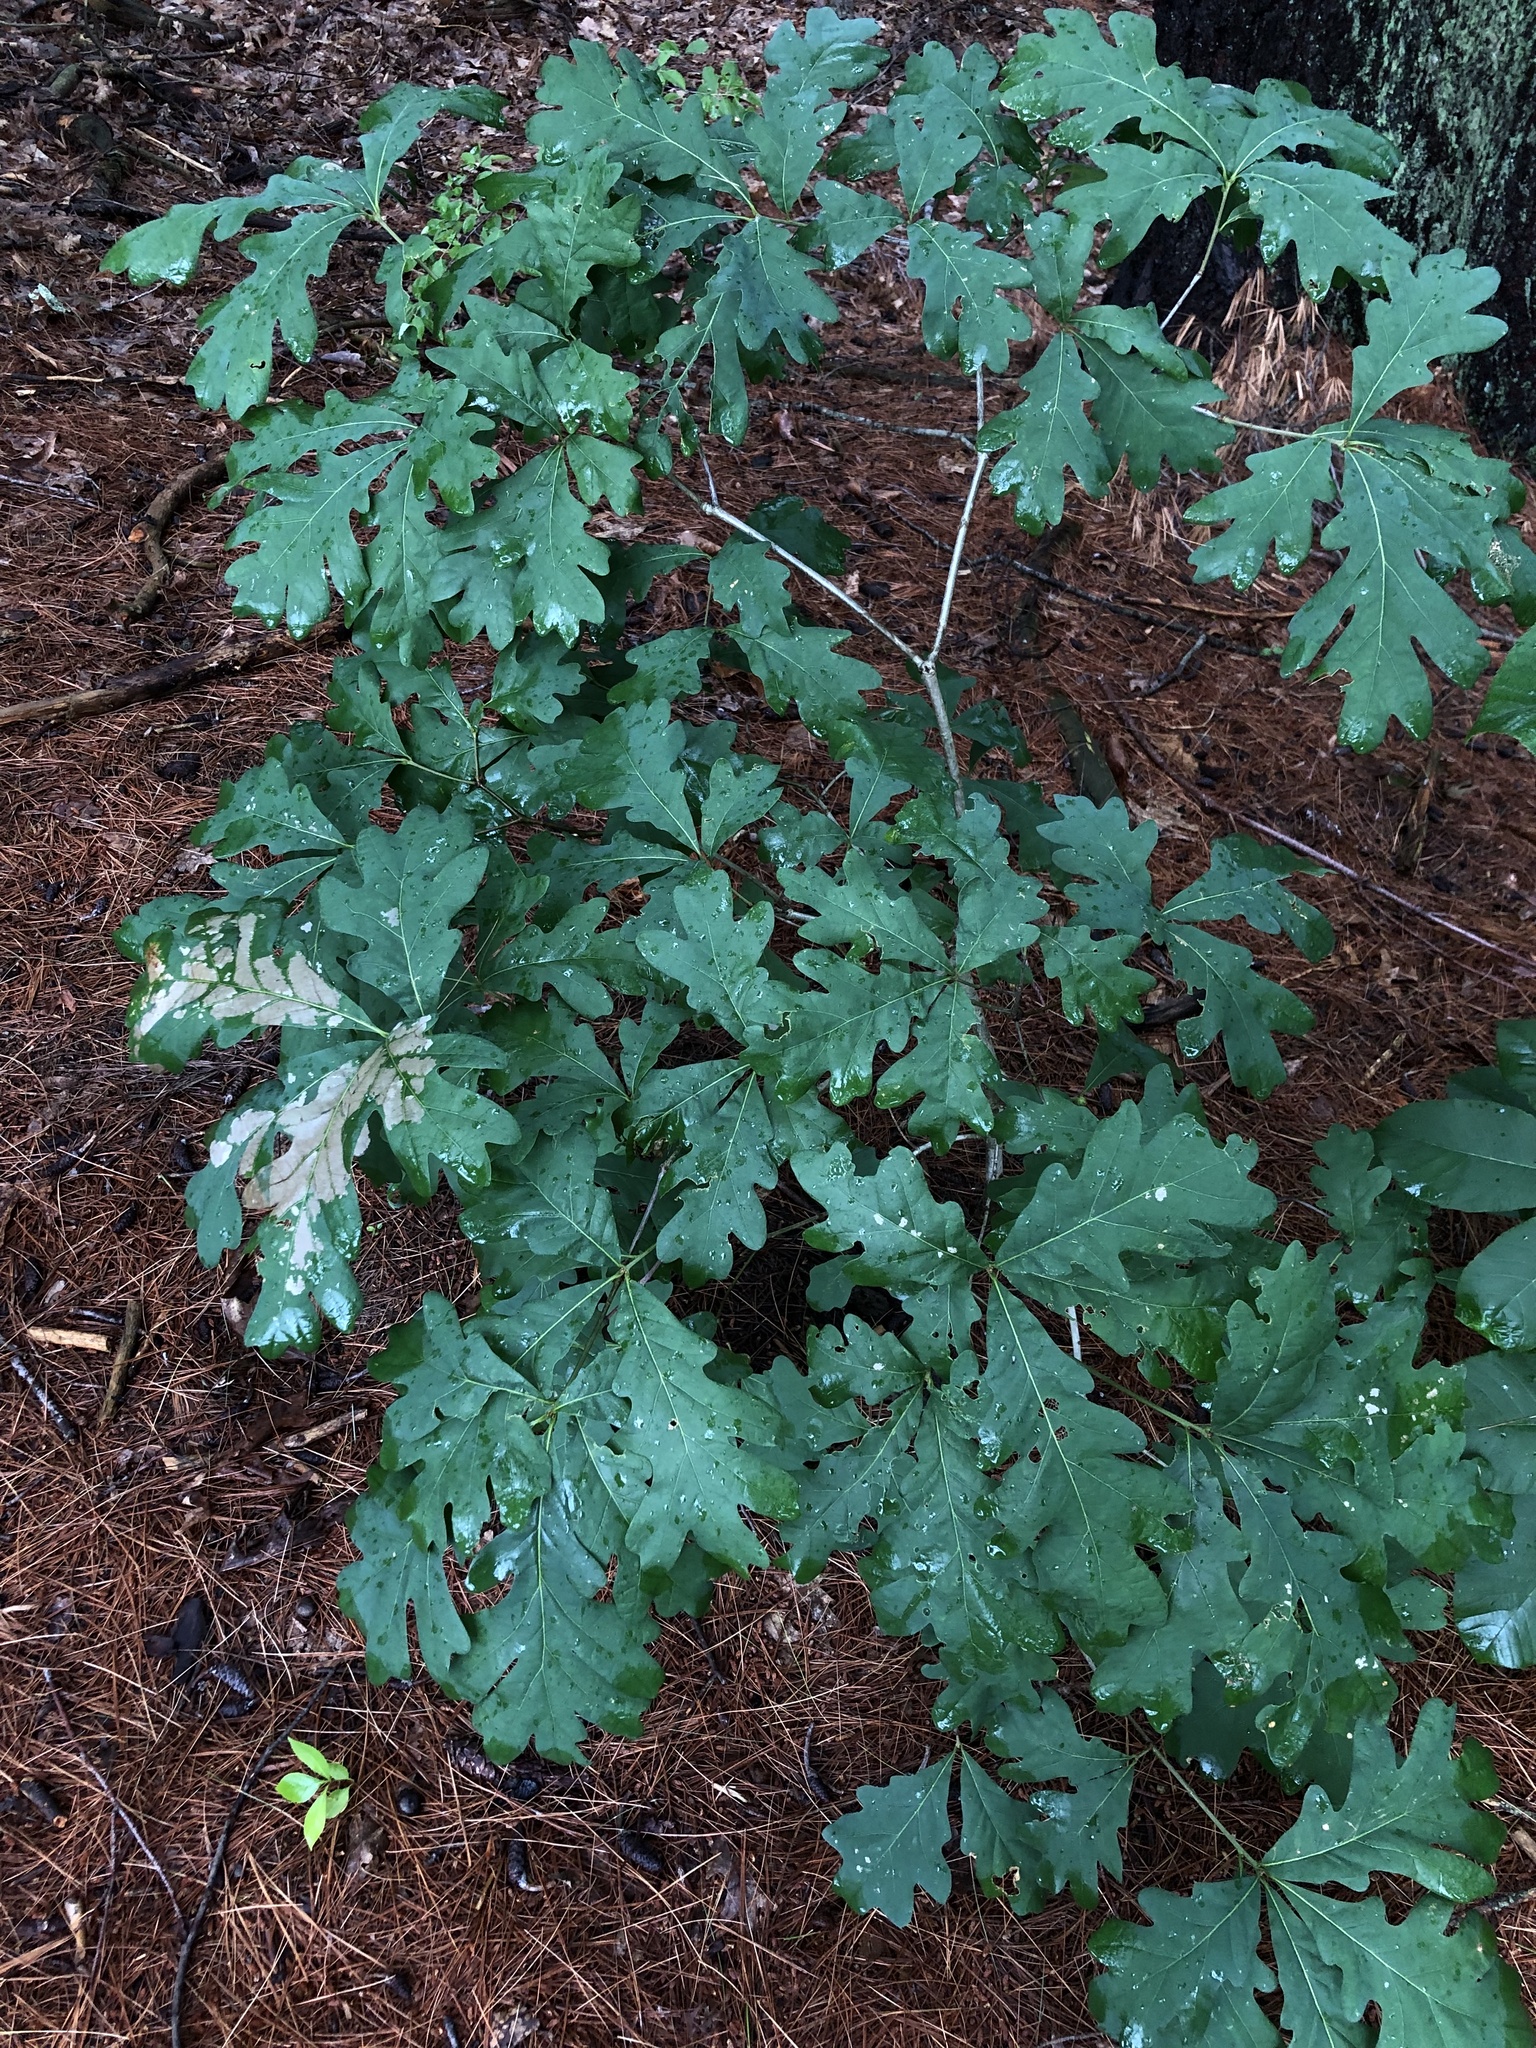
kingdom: Plantae
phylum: Tracheophyta
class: Magnoliopsida
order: Fagales
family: Fagaceae
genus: Quercus
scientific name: Quercus alba
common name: White oak
